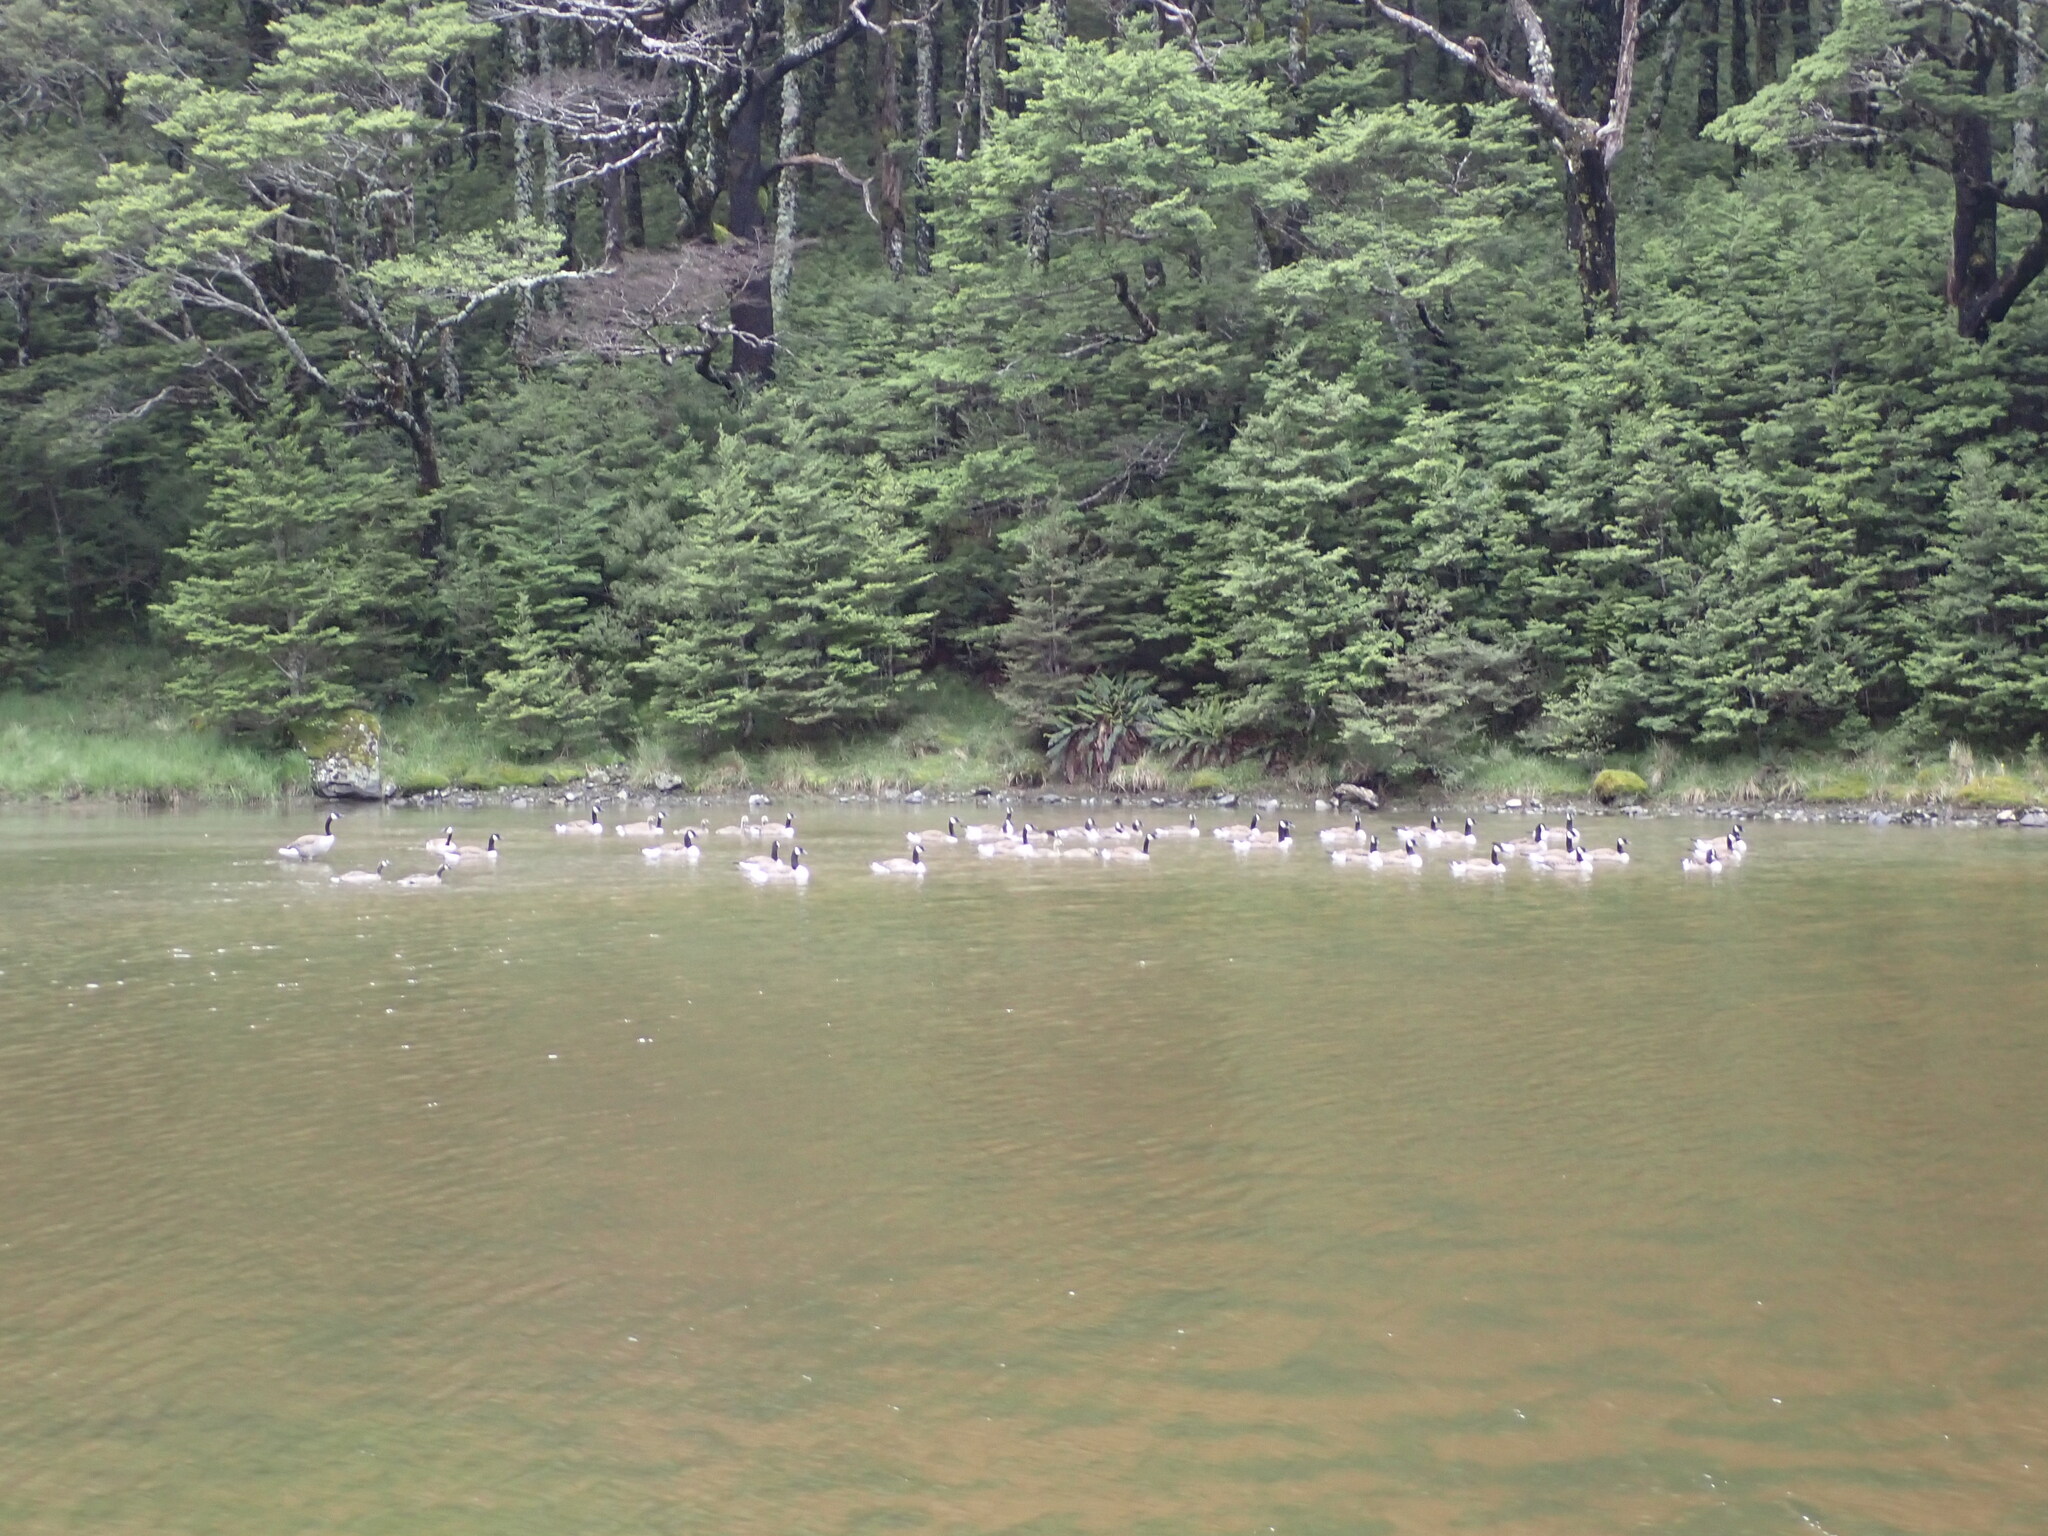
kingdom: Animalia
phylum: Chordata
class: Aves
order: Anseriformes
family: Anatidae
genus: Branta
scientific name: Branta canadensis
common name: Canada goose
